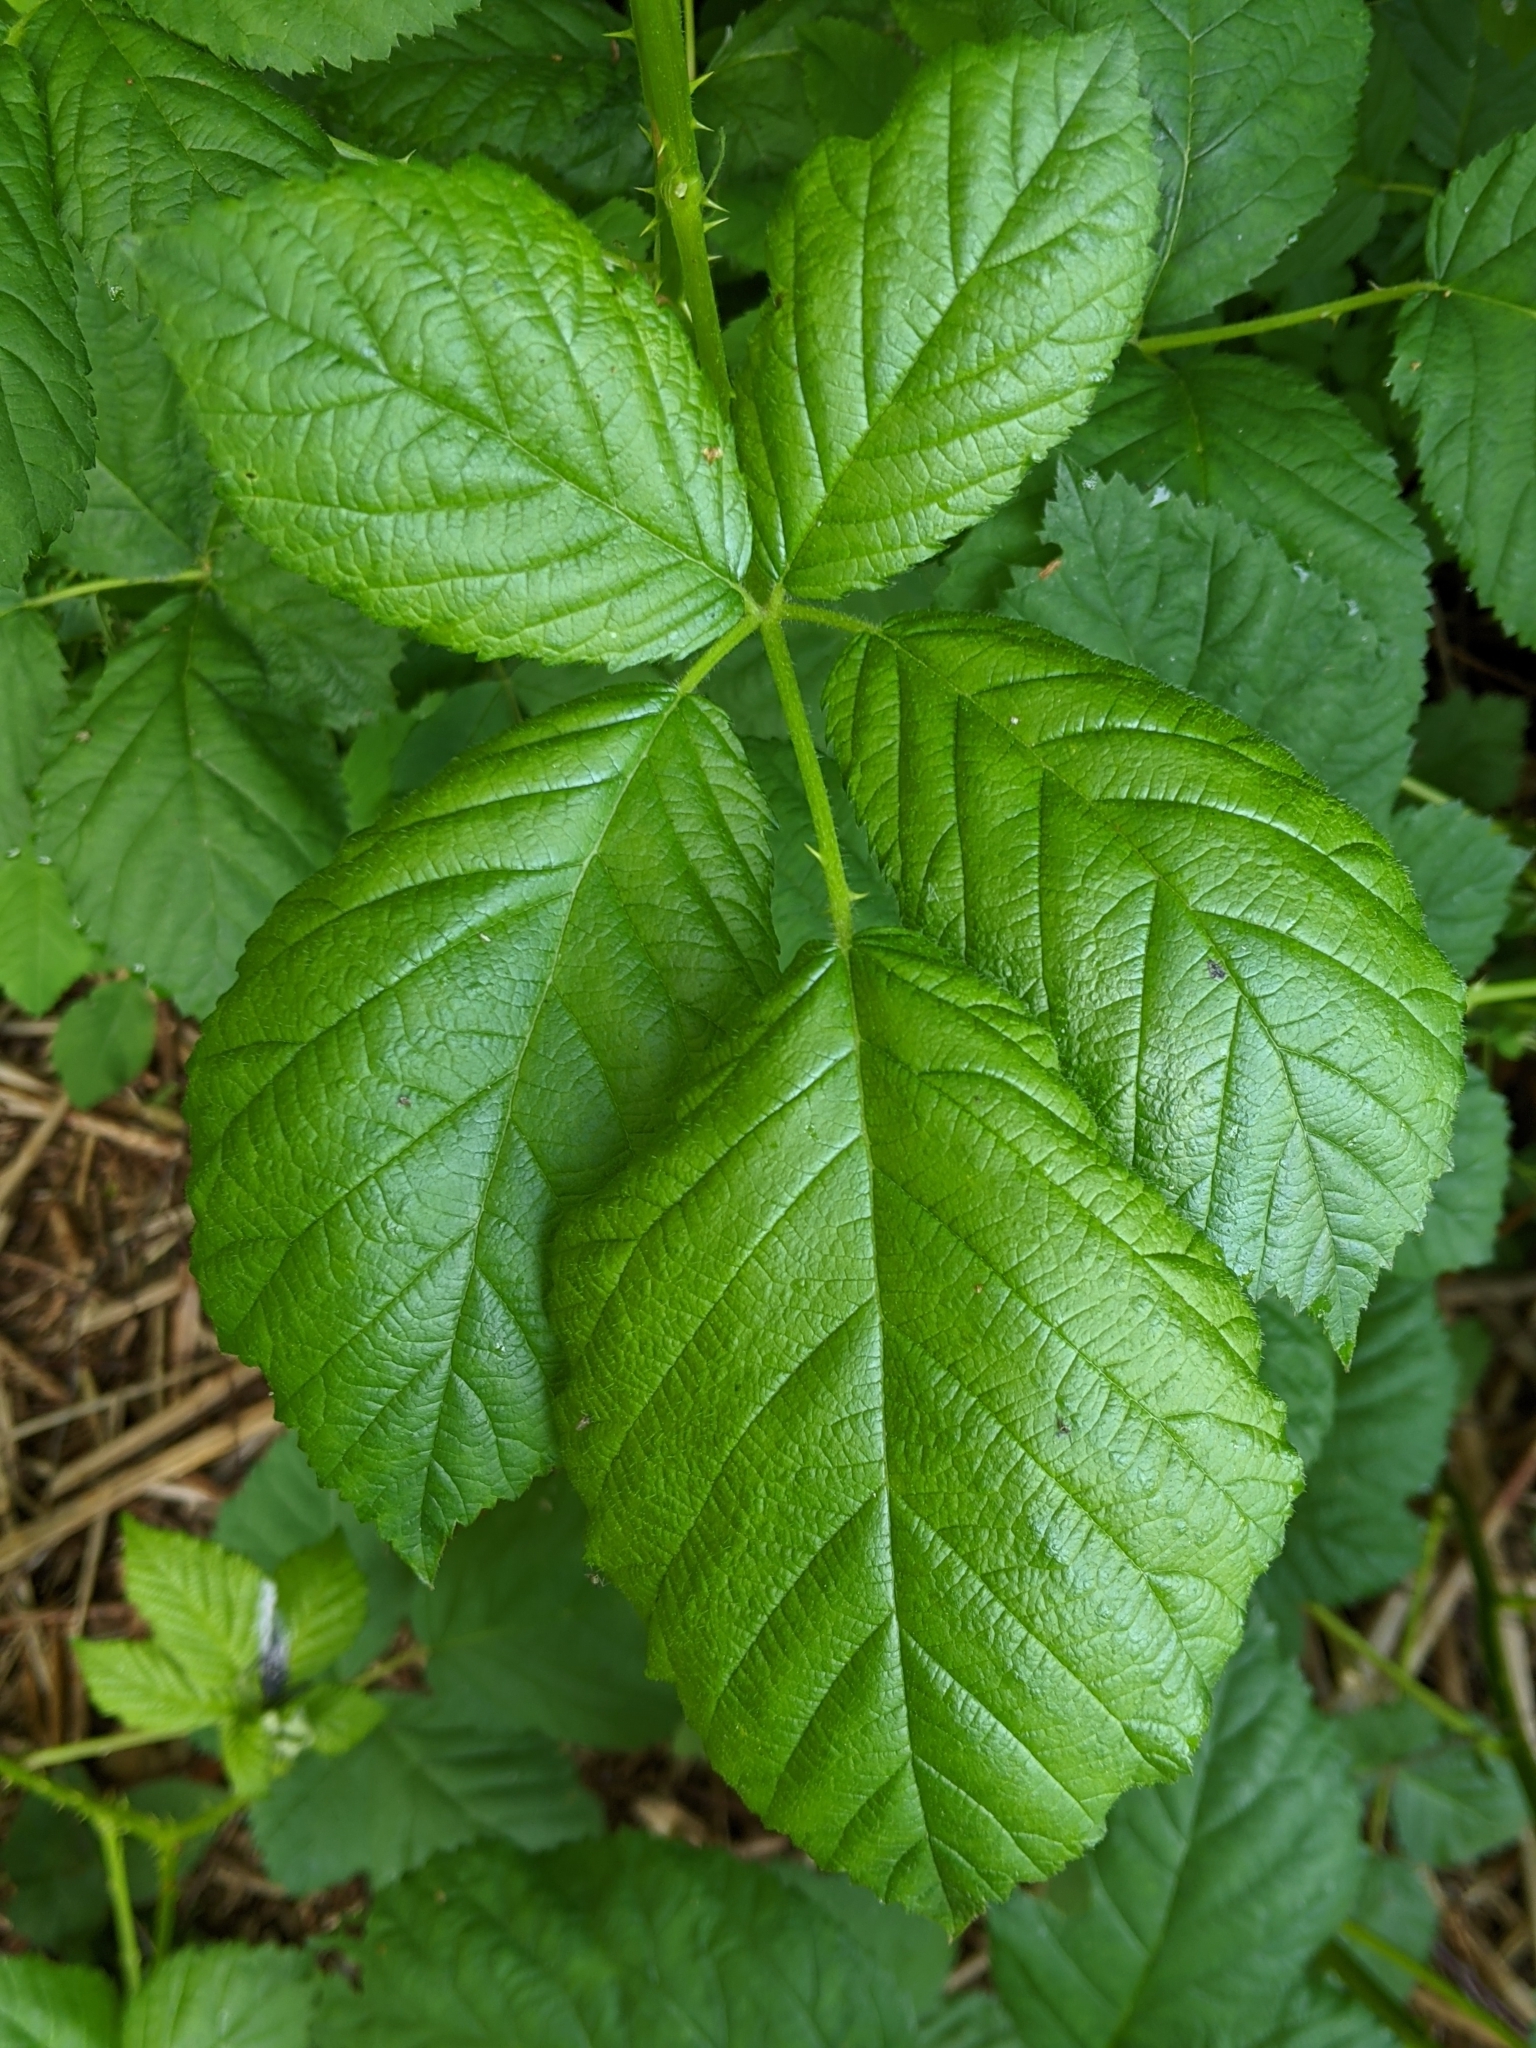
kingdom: Plantae
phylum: Tracheophyta
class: Magnoliopsida
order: Rosales
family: Rosaceae
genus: Rubus
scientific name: Rubus bifrons
